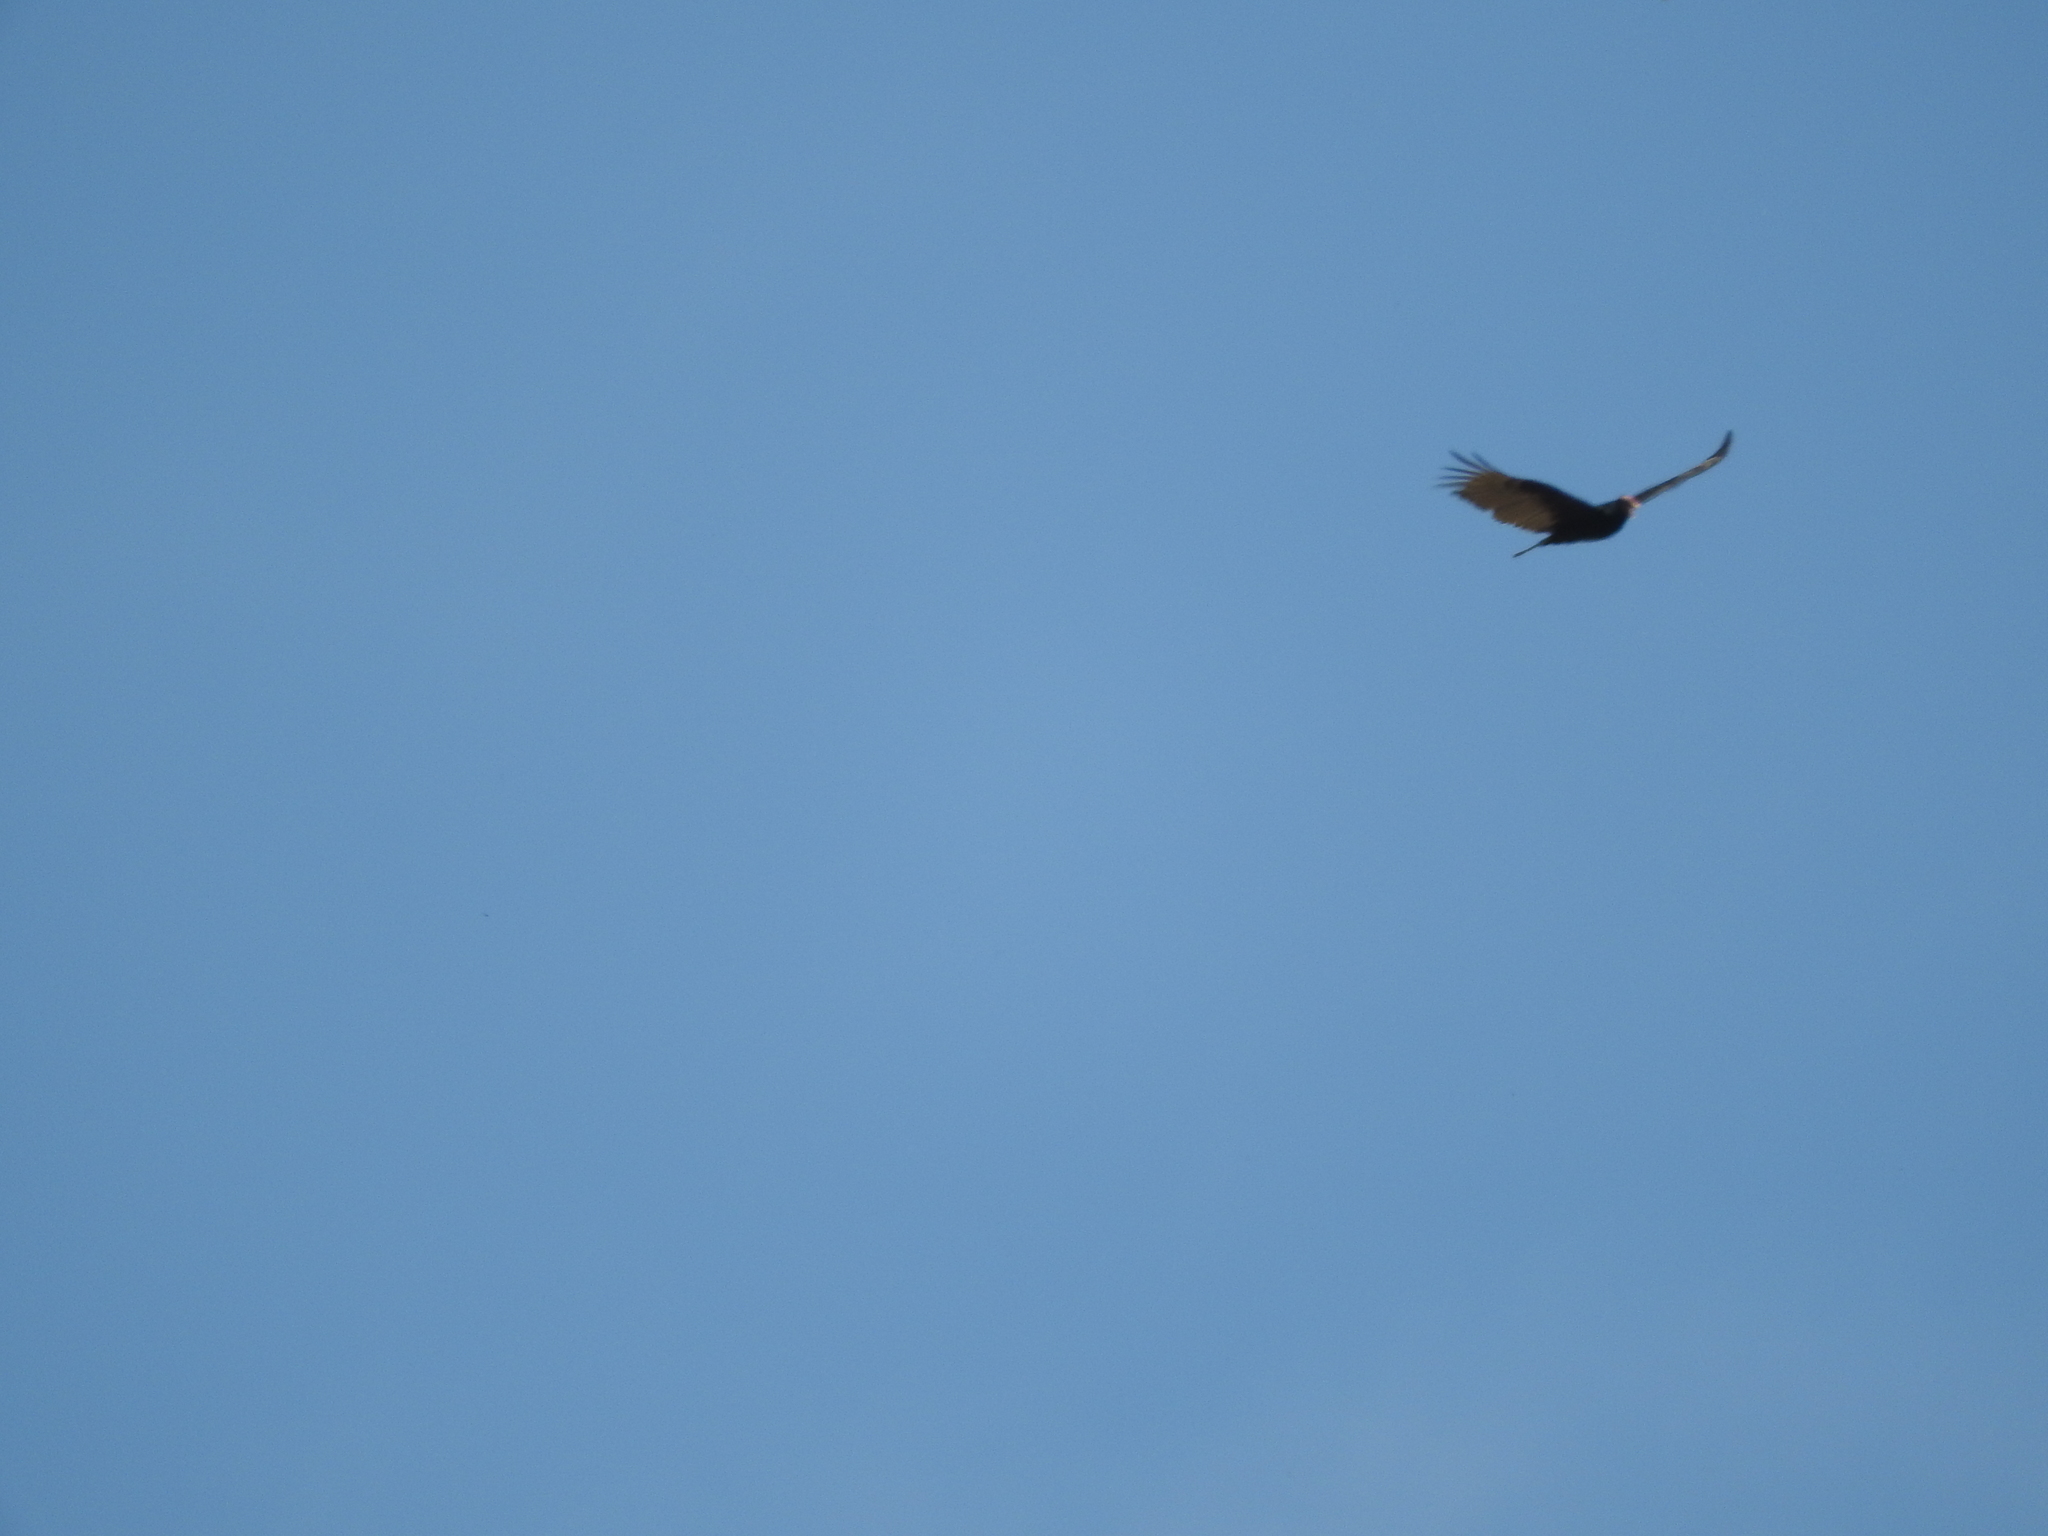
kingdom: Animalia
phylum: Chordata
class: Aves
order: Accipitriformes
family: Cathartidae
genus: Cathartes
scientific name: Cathartes aura
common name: Turkey vulture
